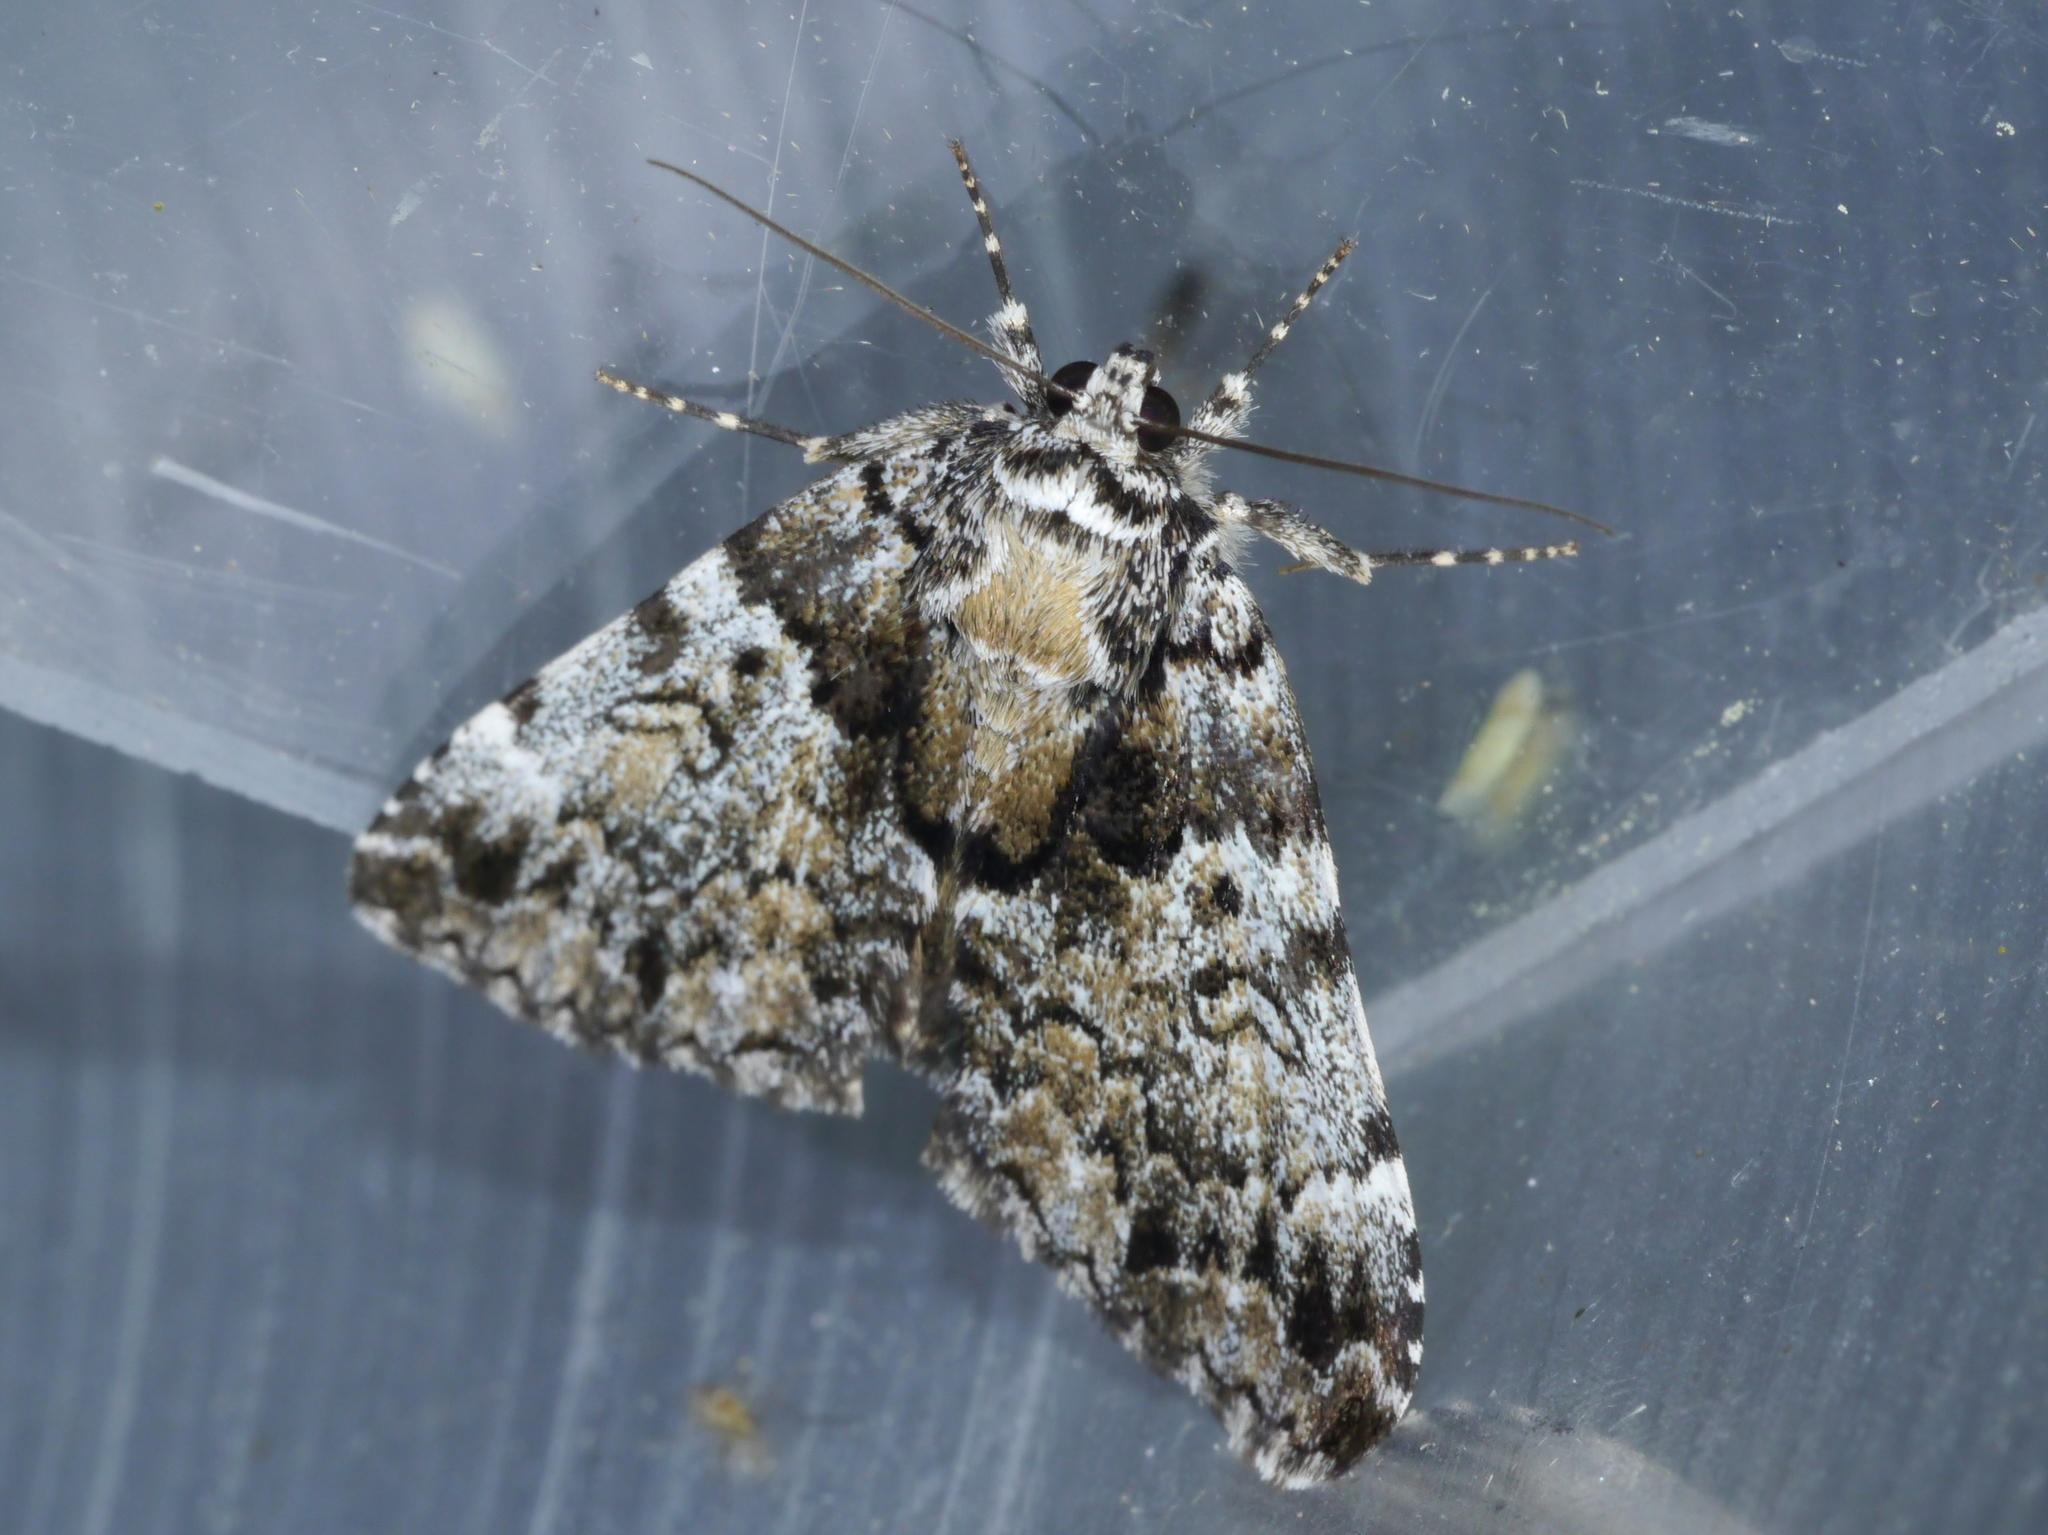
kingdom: Animalia
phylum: Arthropoda
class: Insecta
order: Lepidoptera
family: Erebidae
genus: Allotria
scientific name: Allotria elonympha
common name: False underwing
